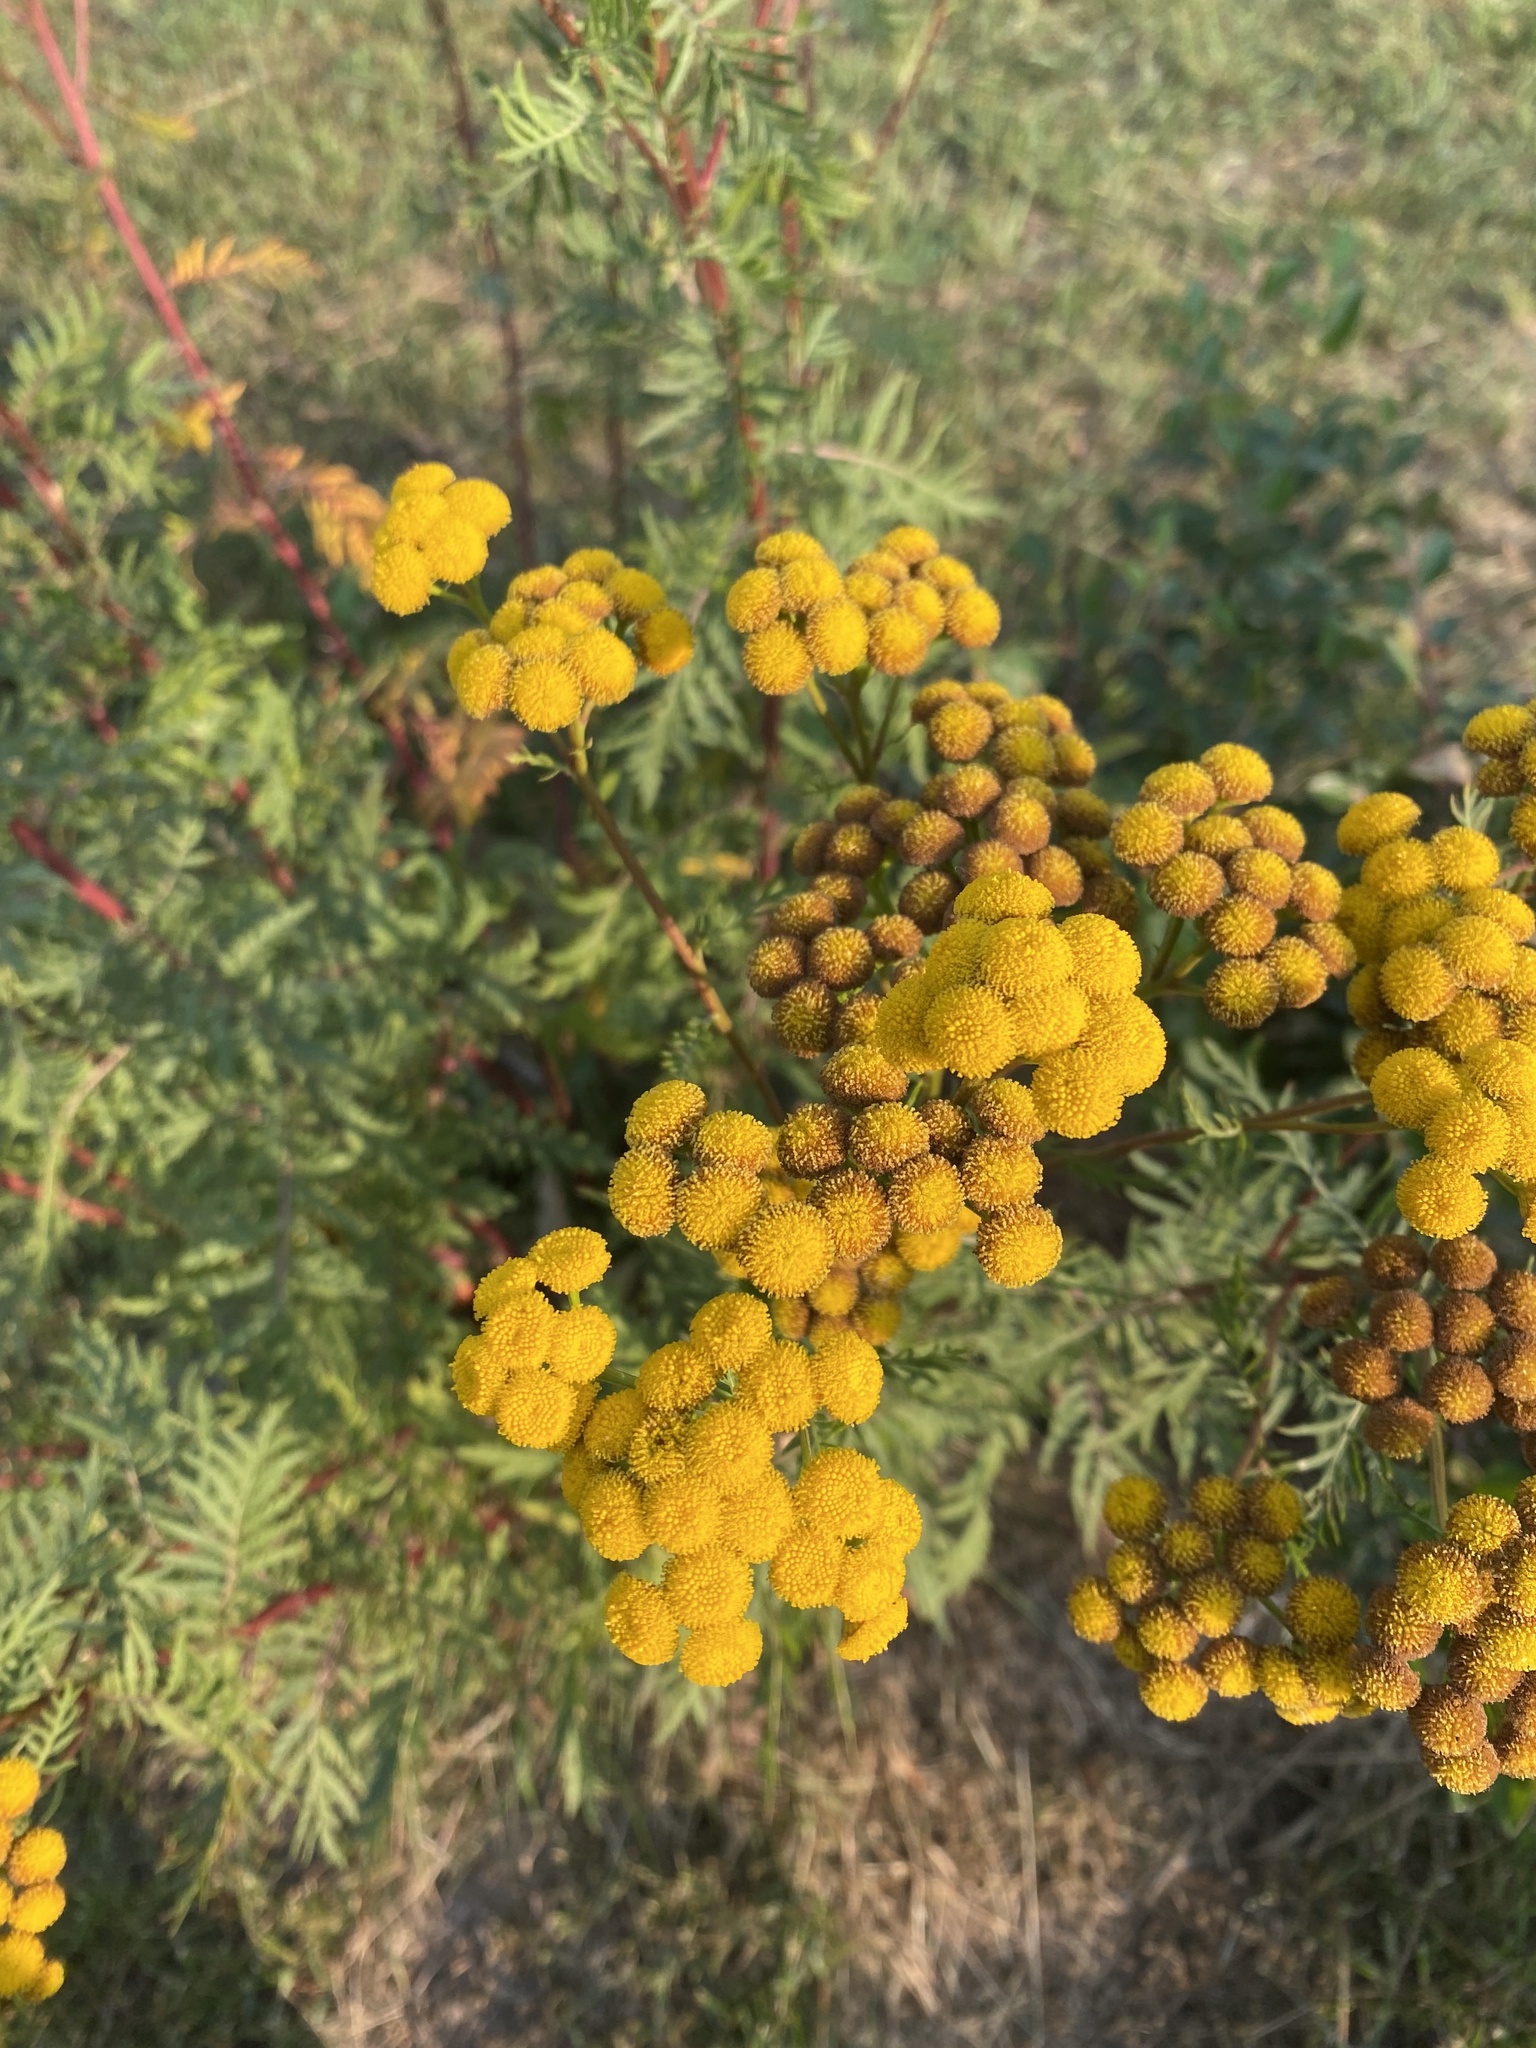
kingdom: Plantae
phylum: Tracheophyta
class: Magnoliopsida
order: Asterales
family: Asteraceae
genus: Tanacetum
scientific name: Tanacetum vulgare
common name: Common tansy
